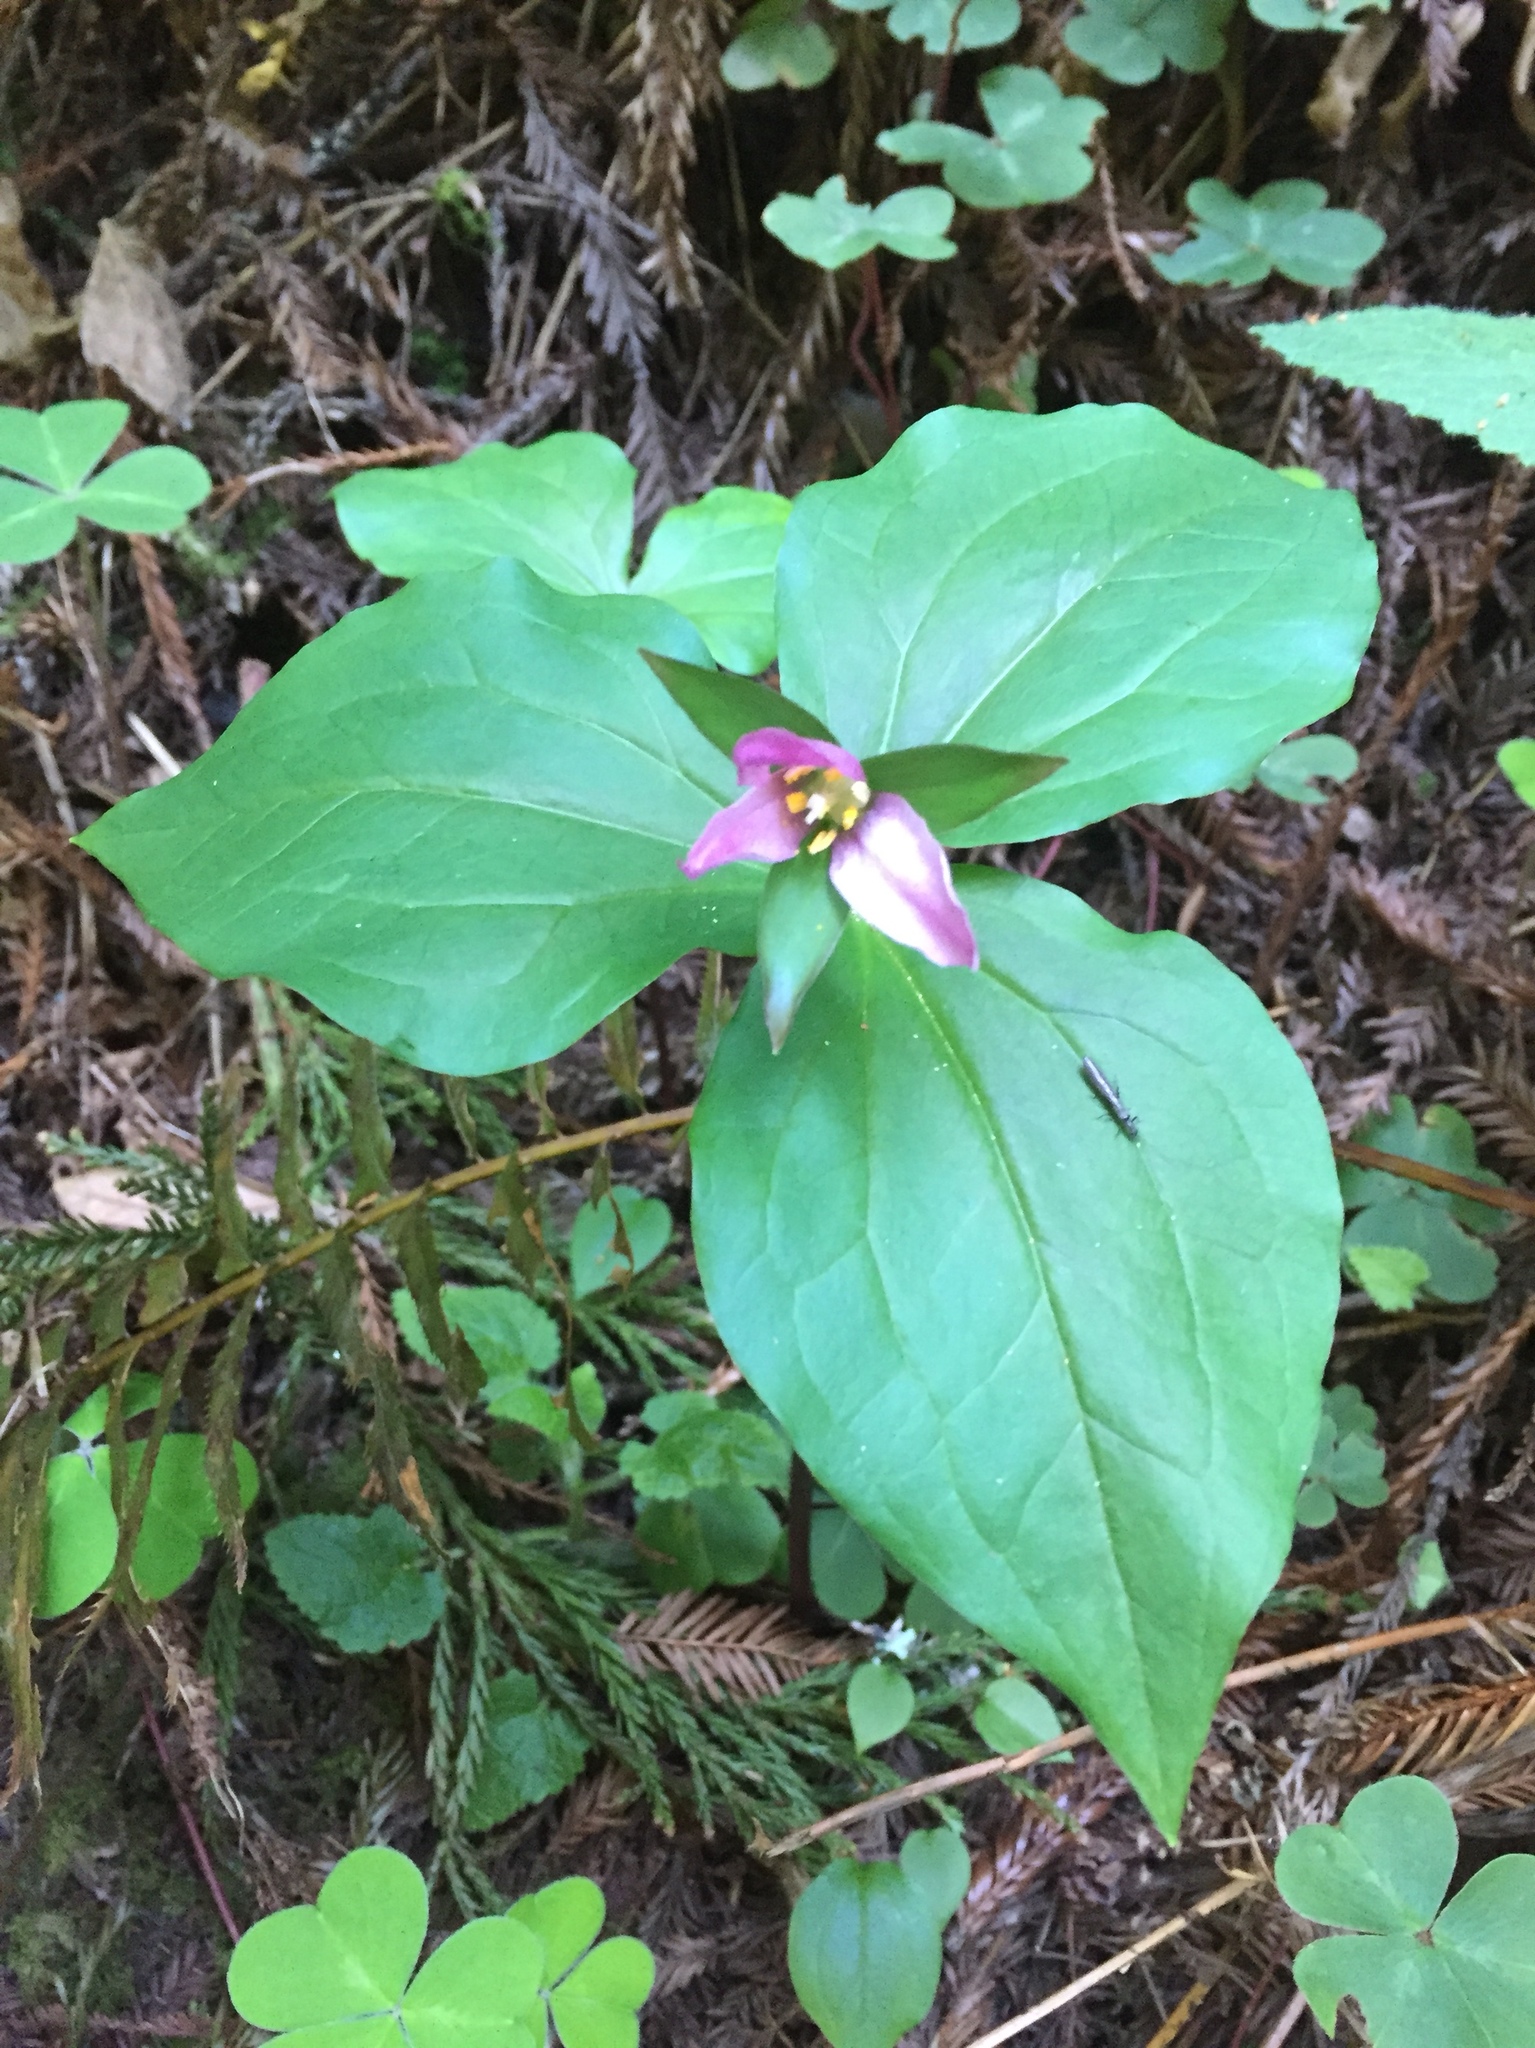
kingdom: Plantae
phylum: Tracheophyta
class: Liliopsida
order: Liliales
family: Melanthiaceae
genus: Trillium
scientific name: Trillium ovatum
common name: Pacific trillium
